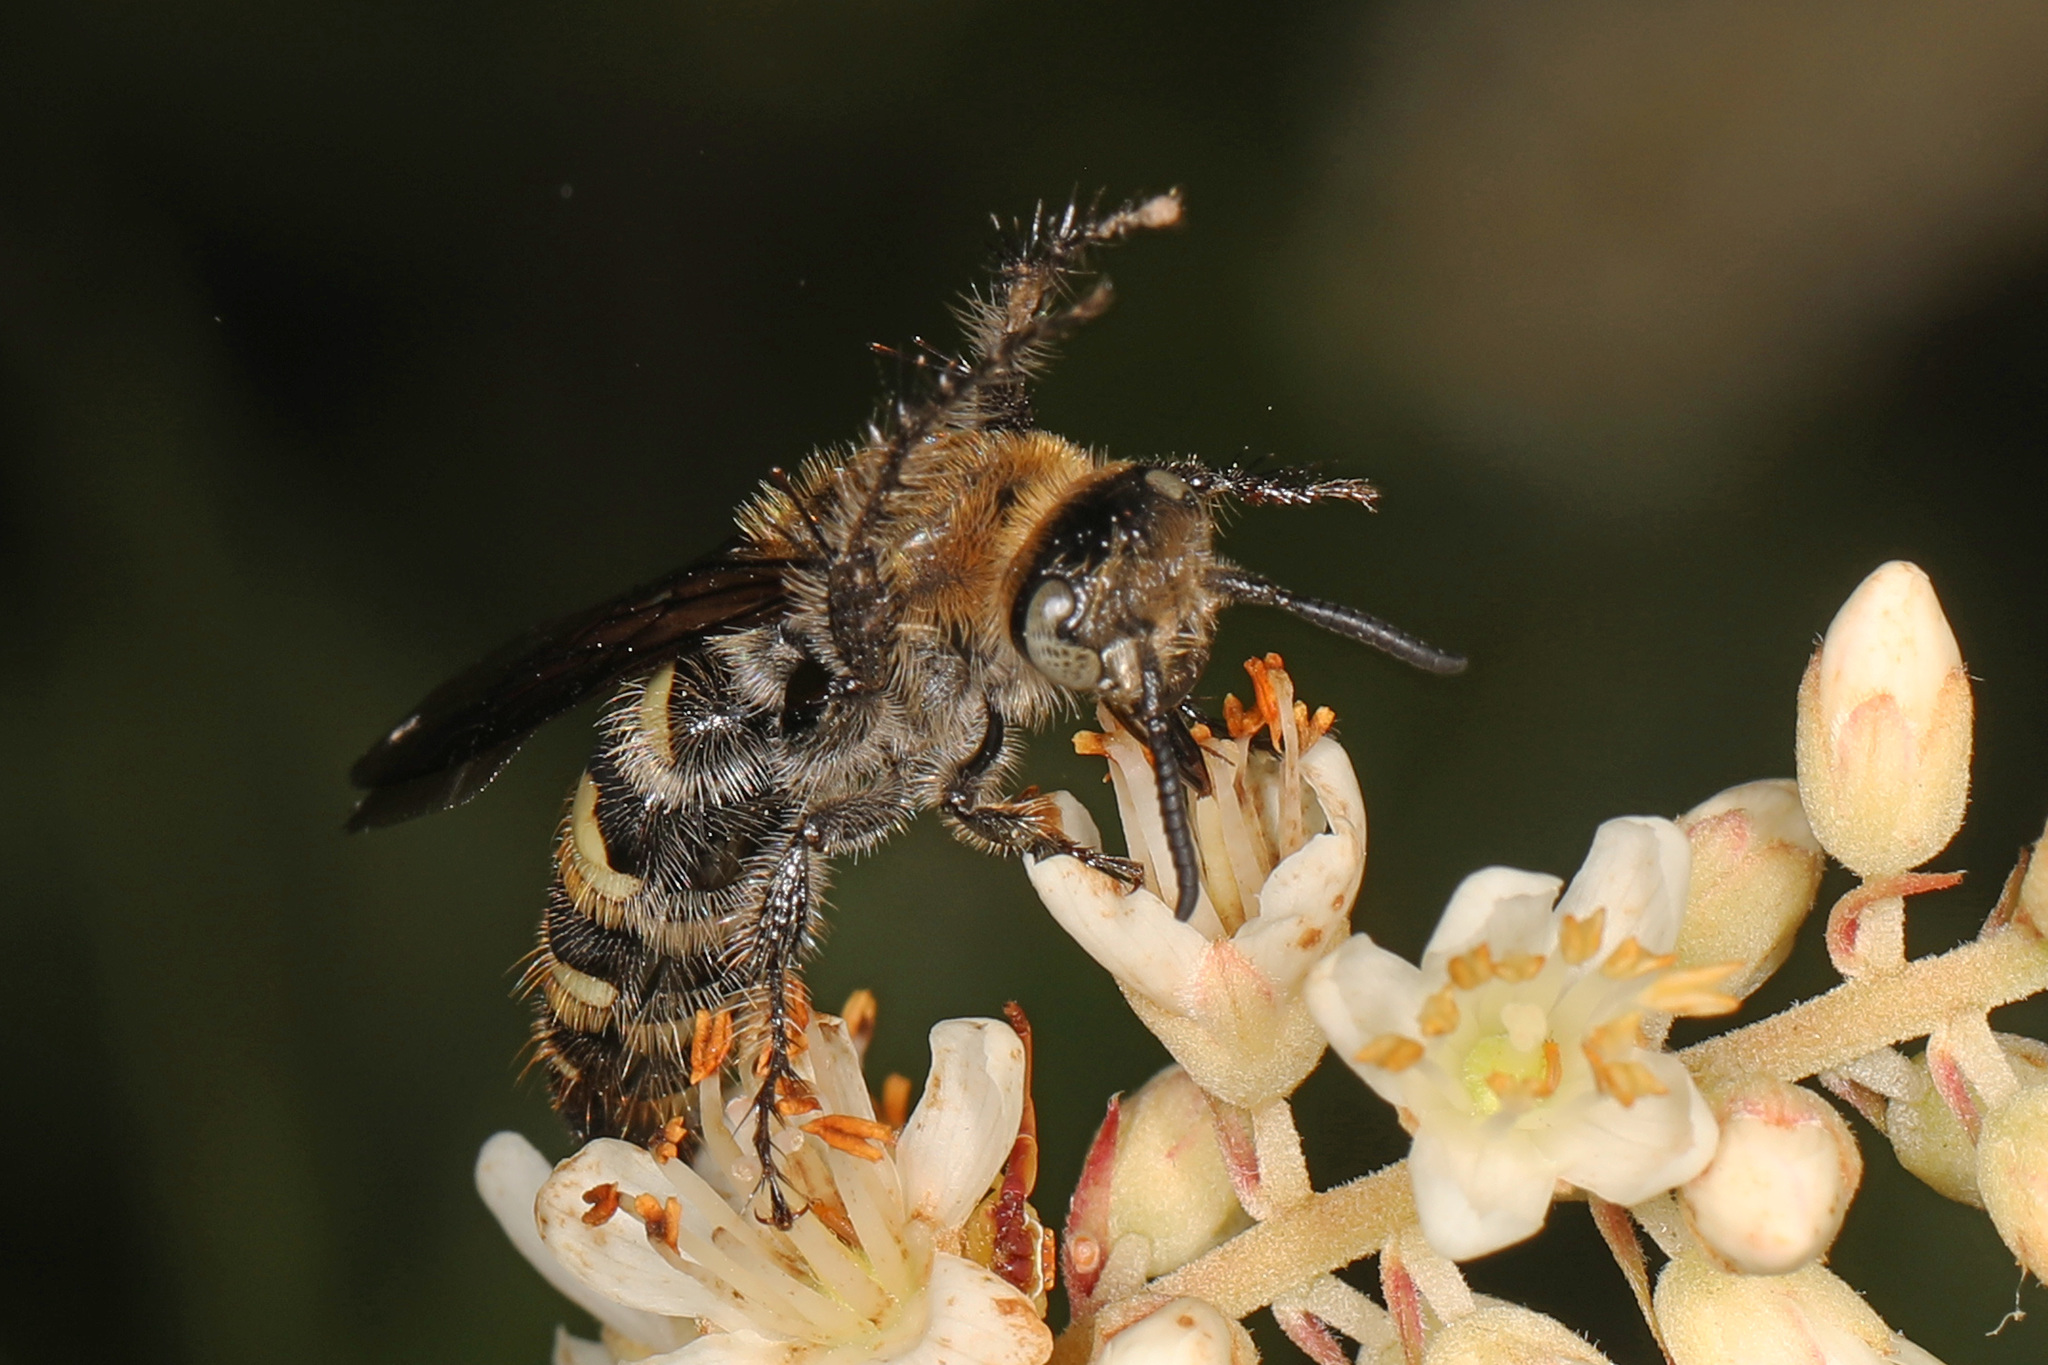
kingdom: Animalia
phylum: Arthropoda
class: Insecta
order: Hymenoptera
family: Scoliidae
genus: Dielis
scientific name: Dielis
